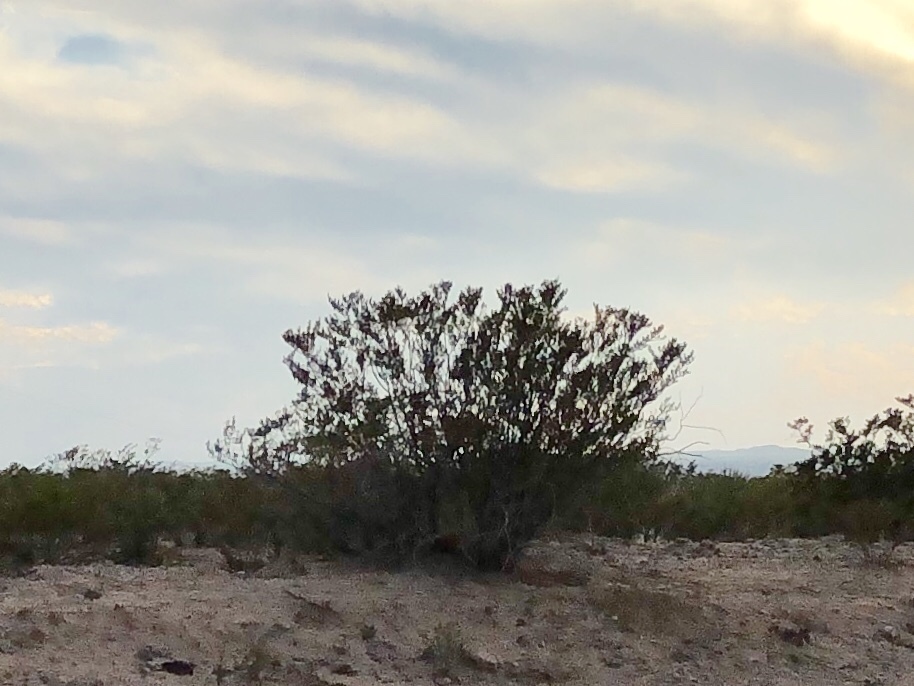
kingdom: Plantae
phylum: Tracheophyta
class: Magnoliopsida
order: Zygophyllales
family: Zygophyllaceae
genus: Larrea
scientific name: Larrea tridentata
